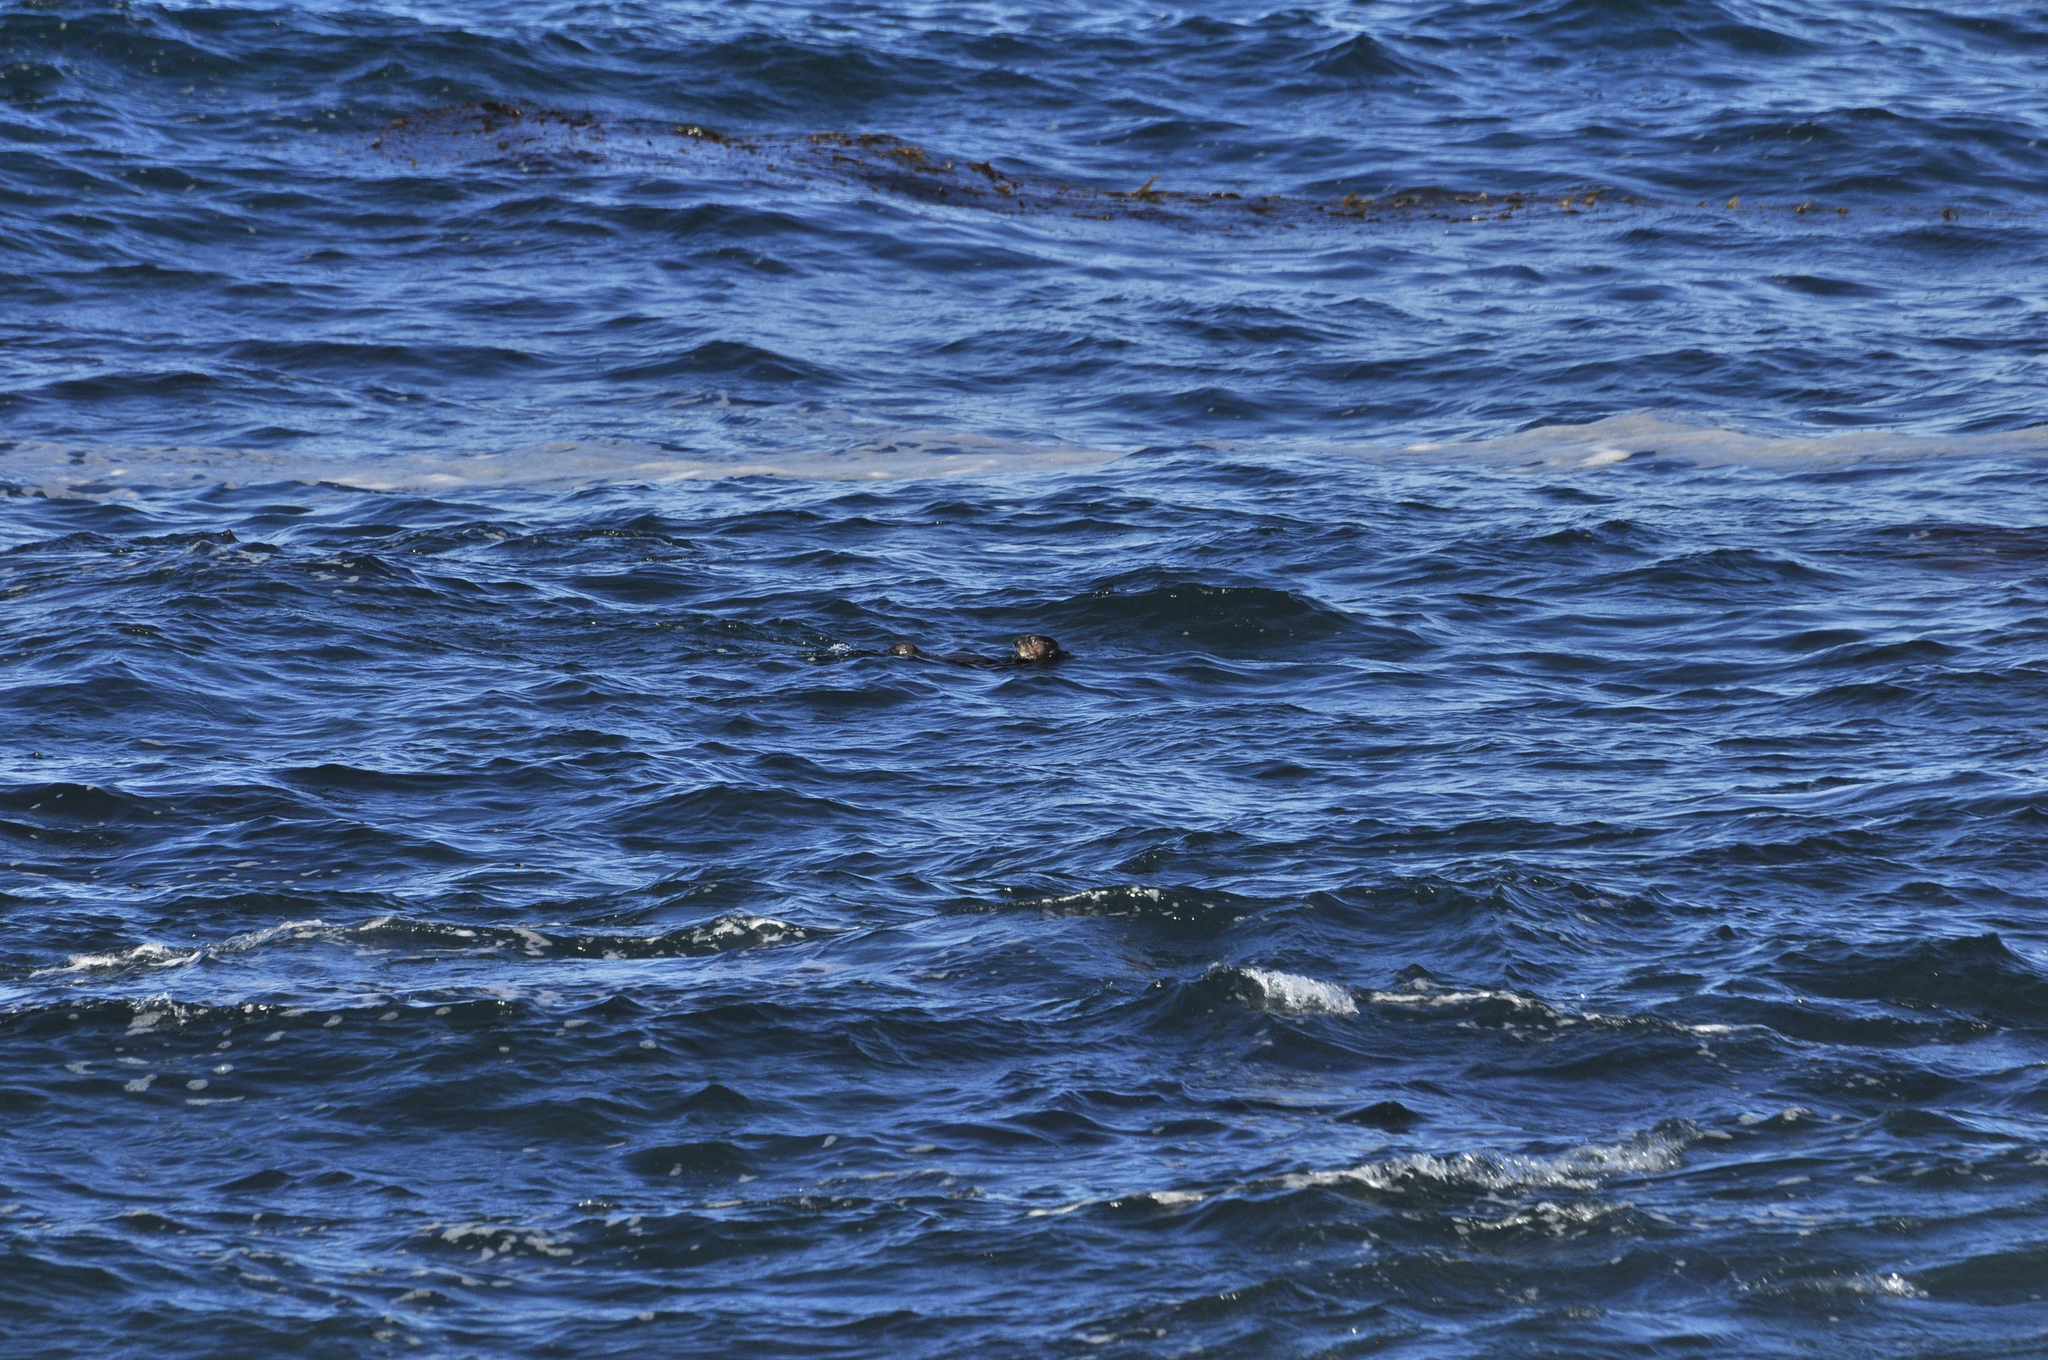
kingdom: Animalia
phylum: Chordata
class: Mammalia
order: Carnivora
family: Mustelidae
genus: Enhydra
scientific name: Enhydra lutris
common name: Sea otter
